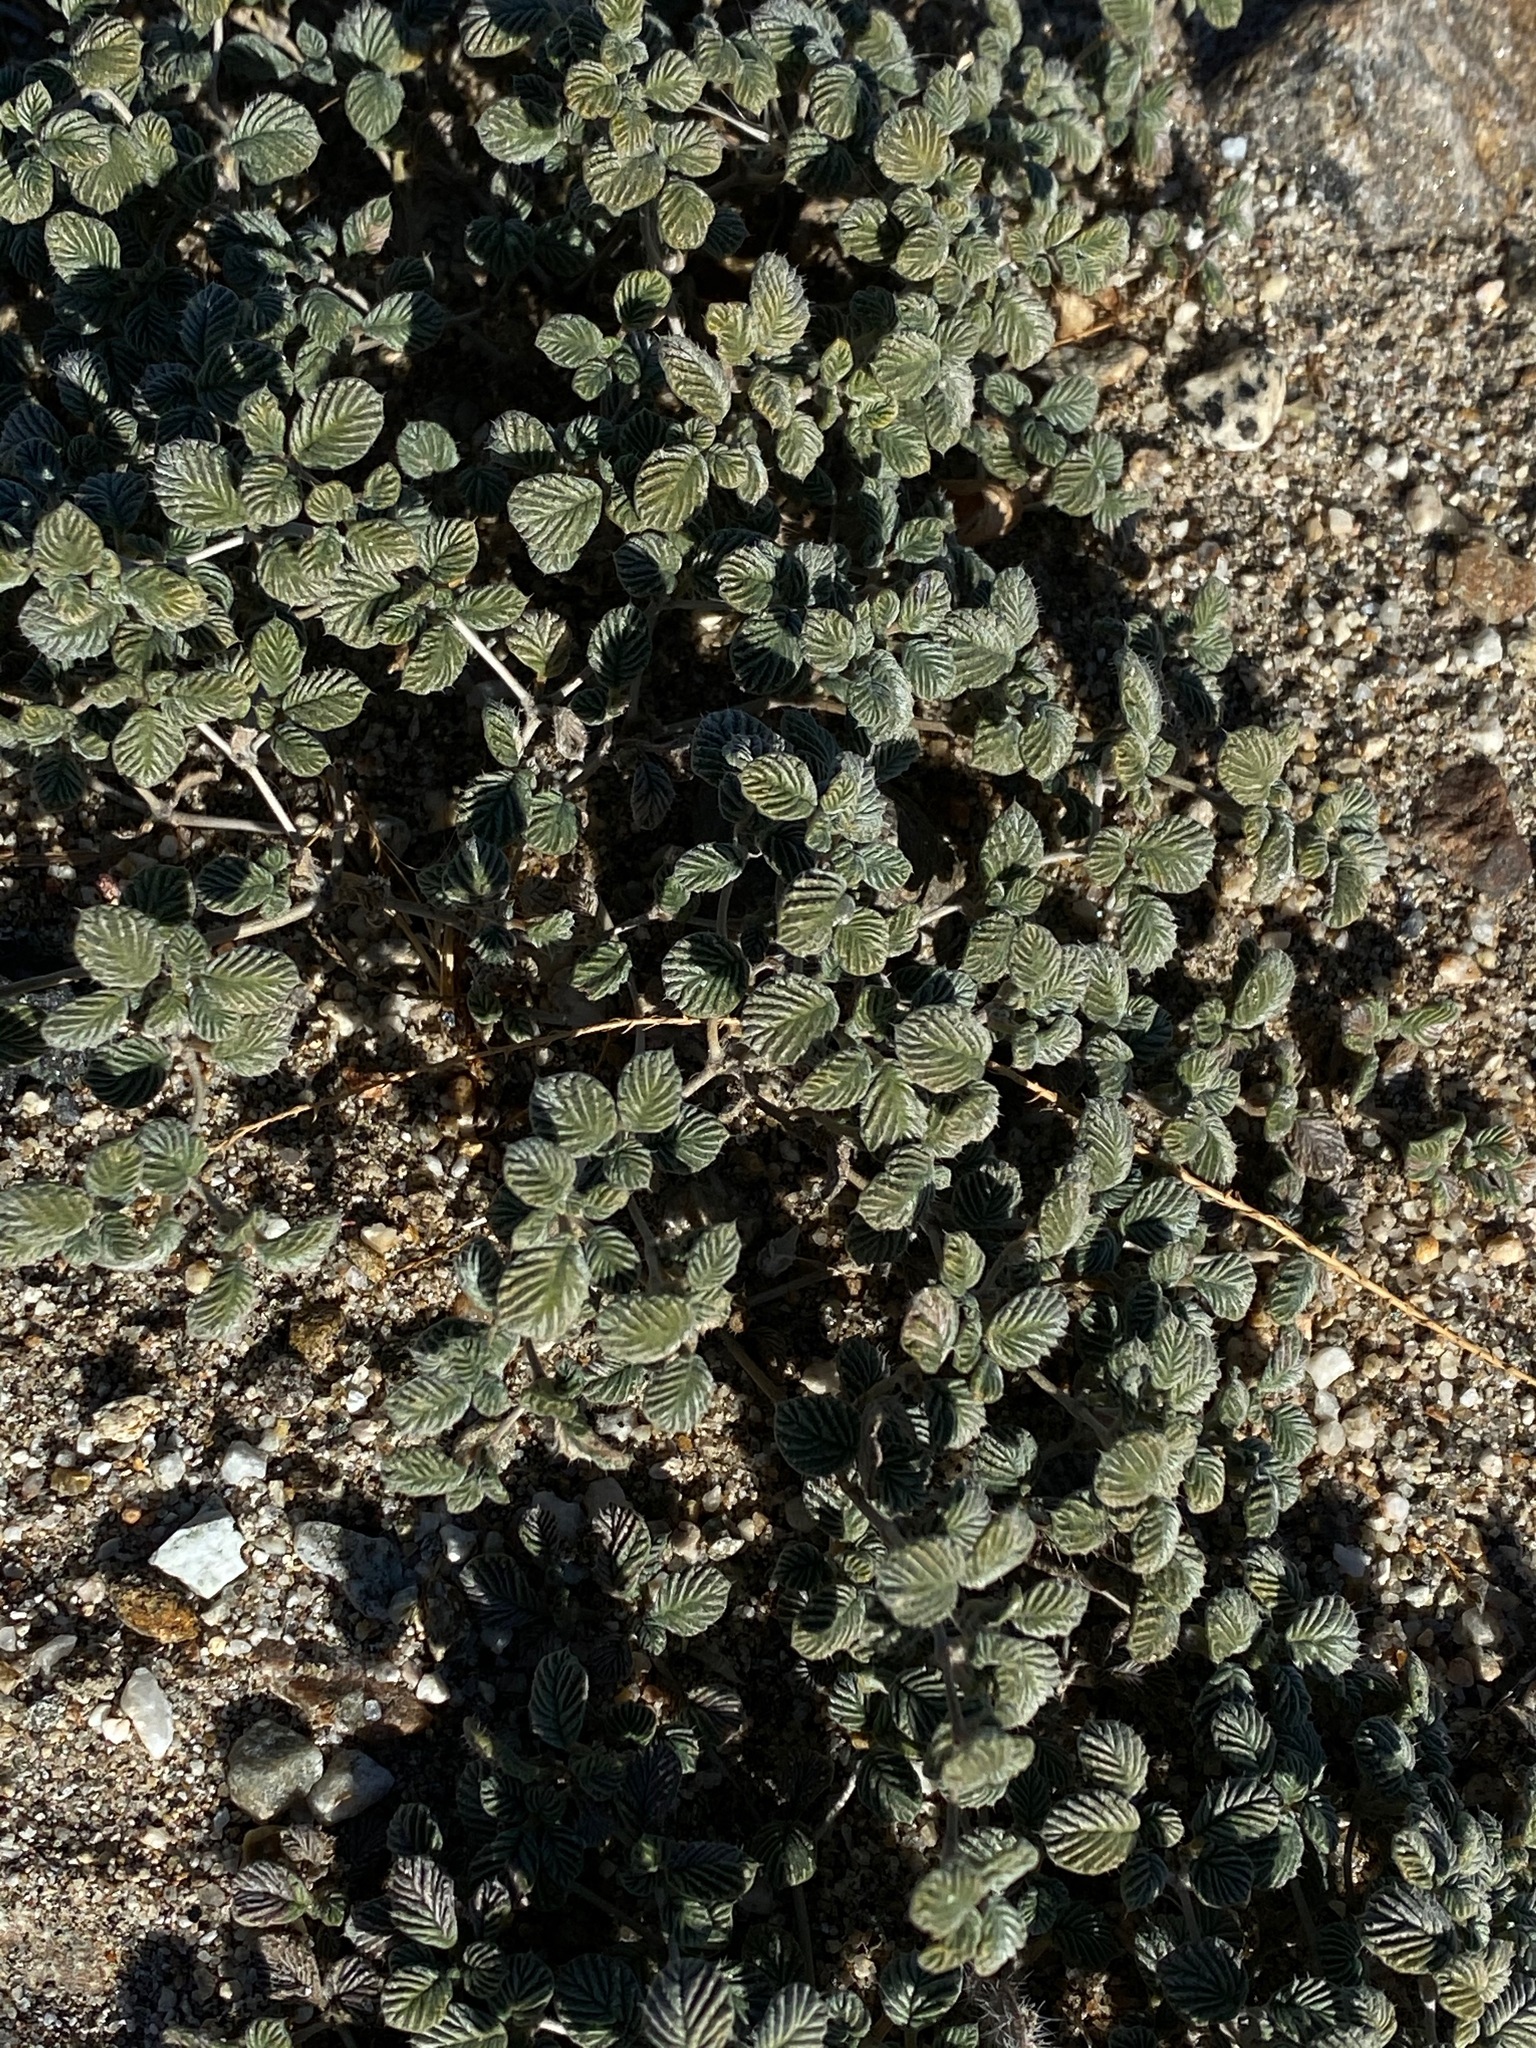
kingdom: Plantae
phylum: Tracheophyta
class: Magnoliopsida
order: Boraginales
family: Ehretiaceae
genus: Tiquilia
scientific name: Tiquilia plicata
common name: Fan-leaf tiquilia
